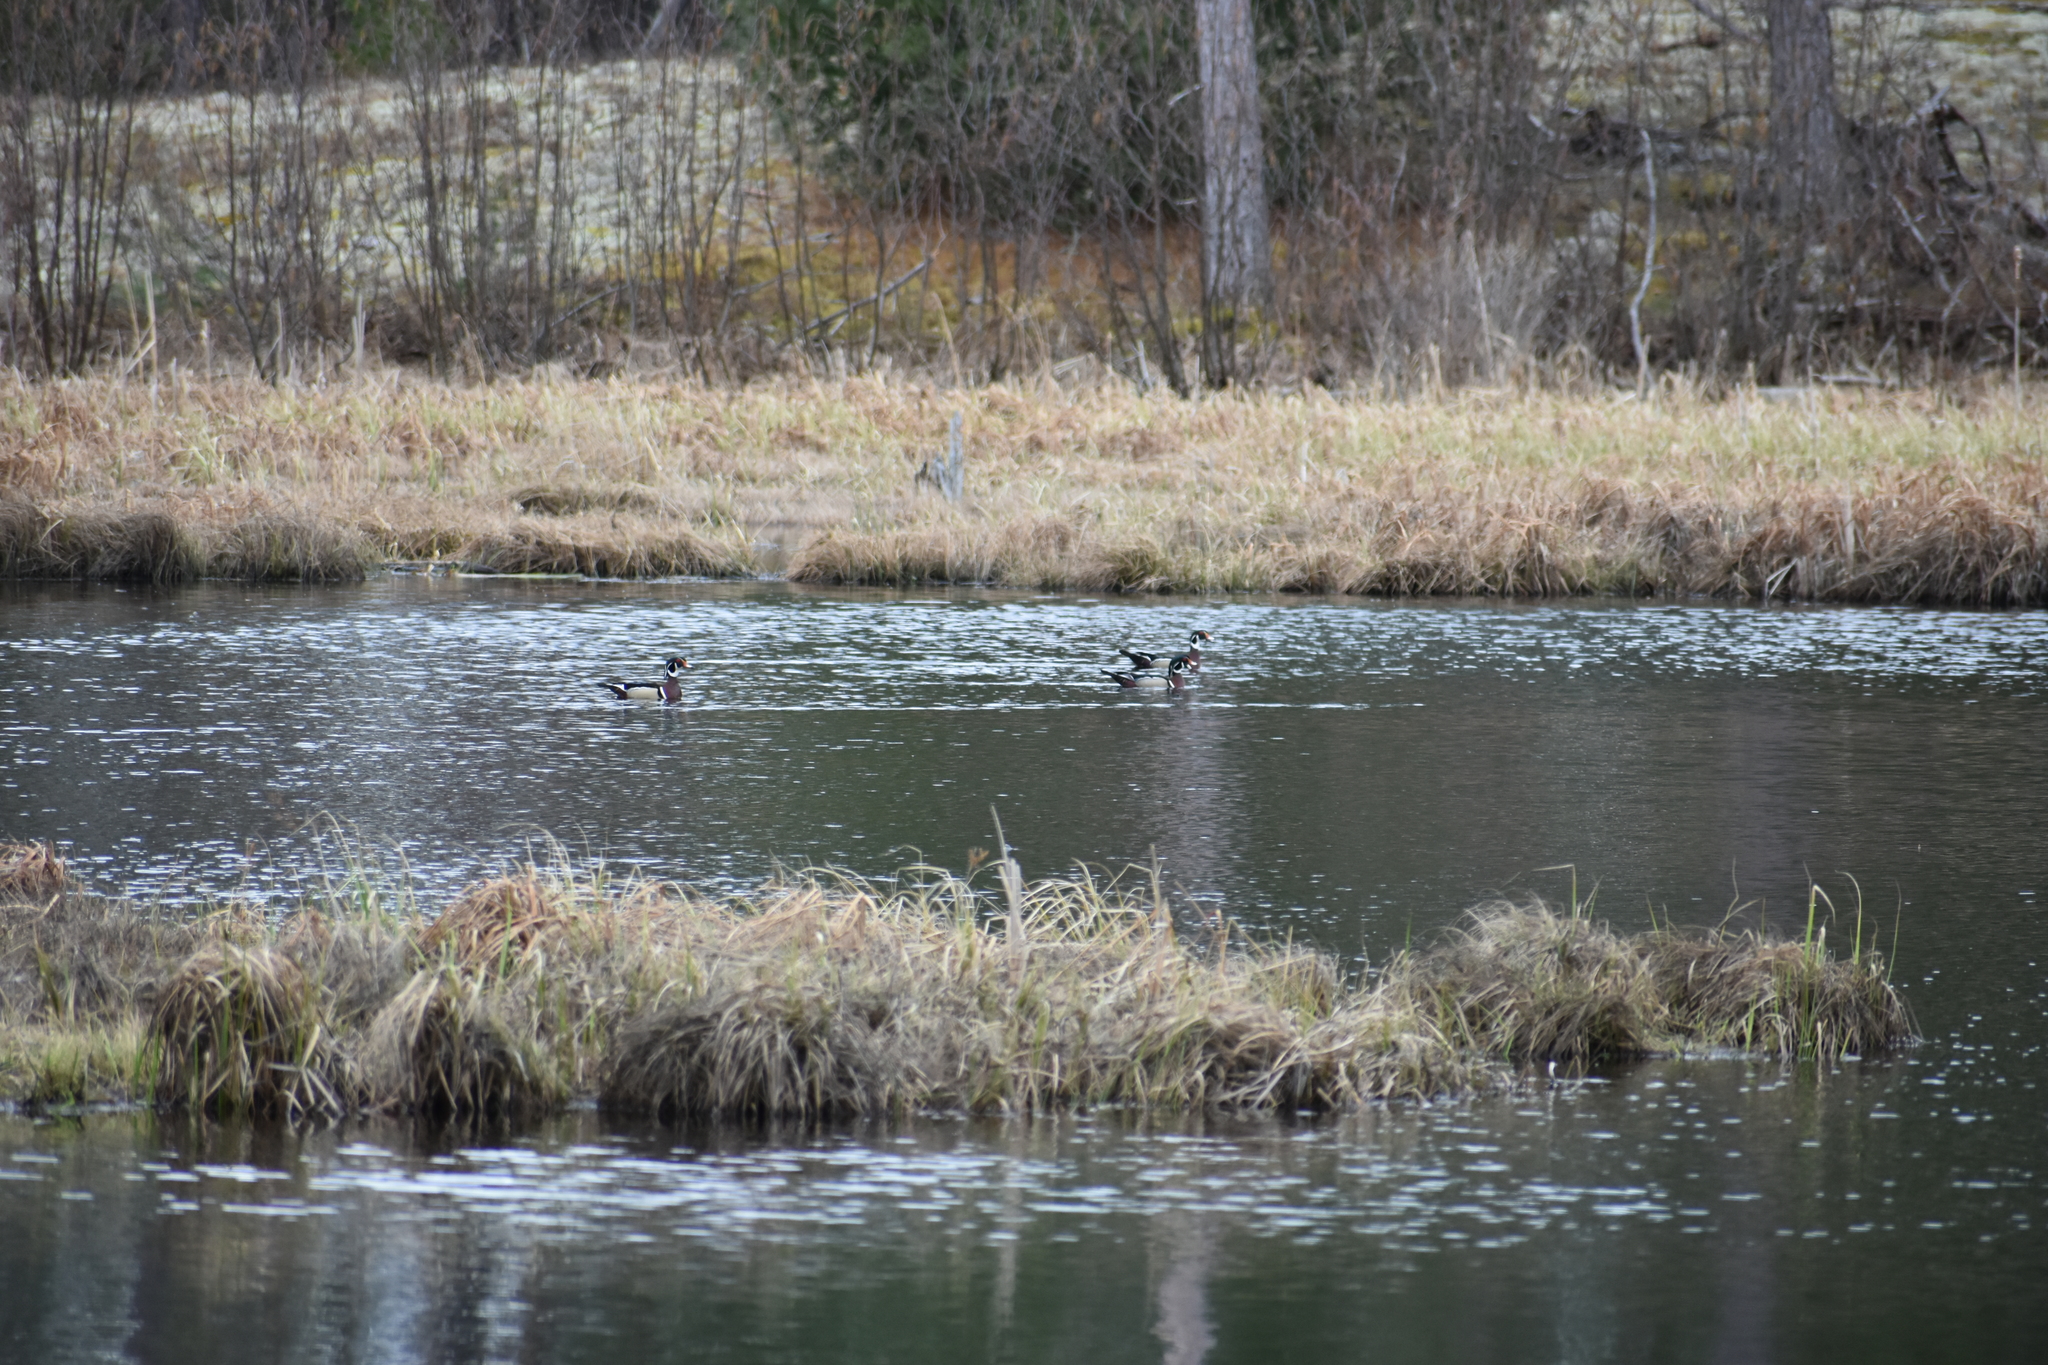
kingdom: Animalia
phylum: Chordata
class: Aves
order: Anseriformes
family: Anatidae
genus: Aix
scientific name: Aix sponsa
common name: Wood duck
